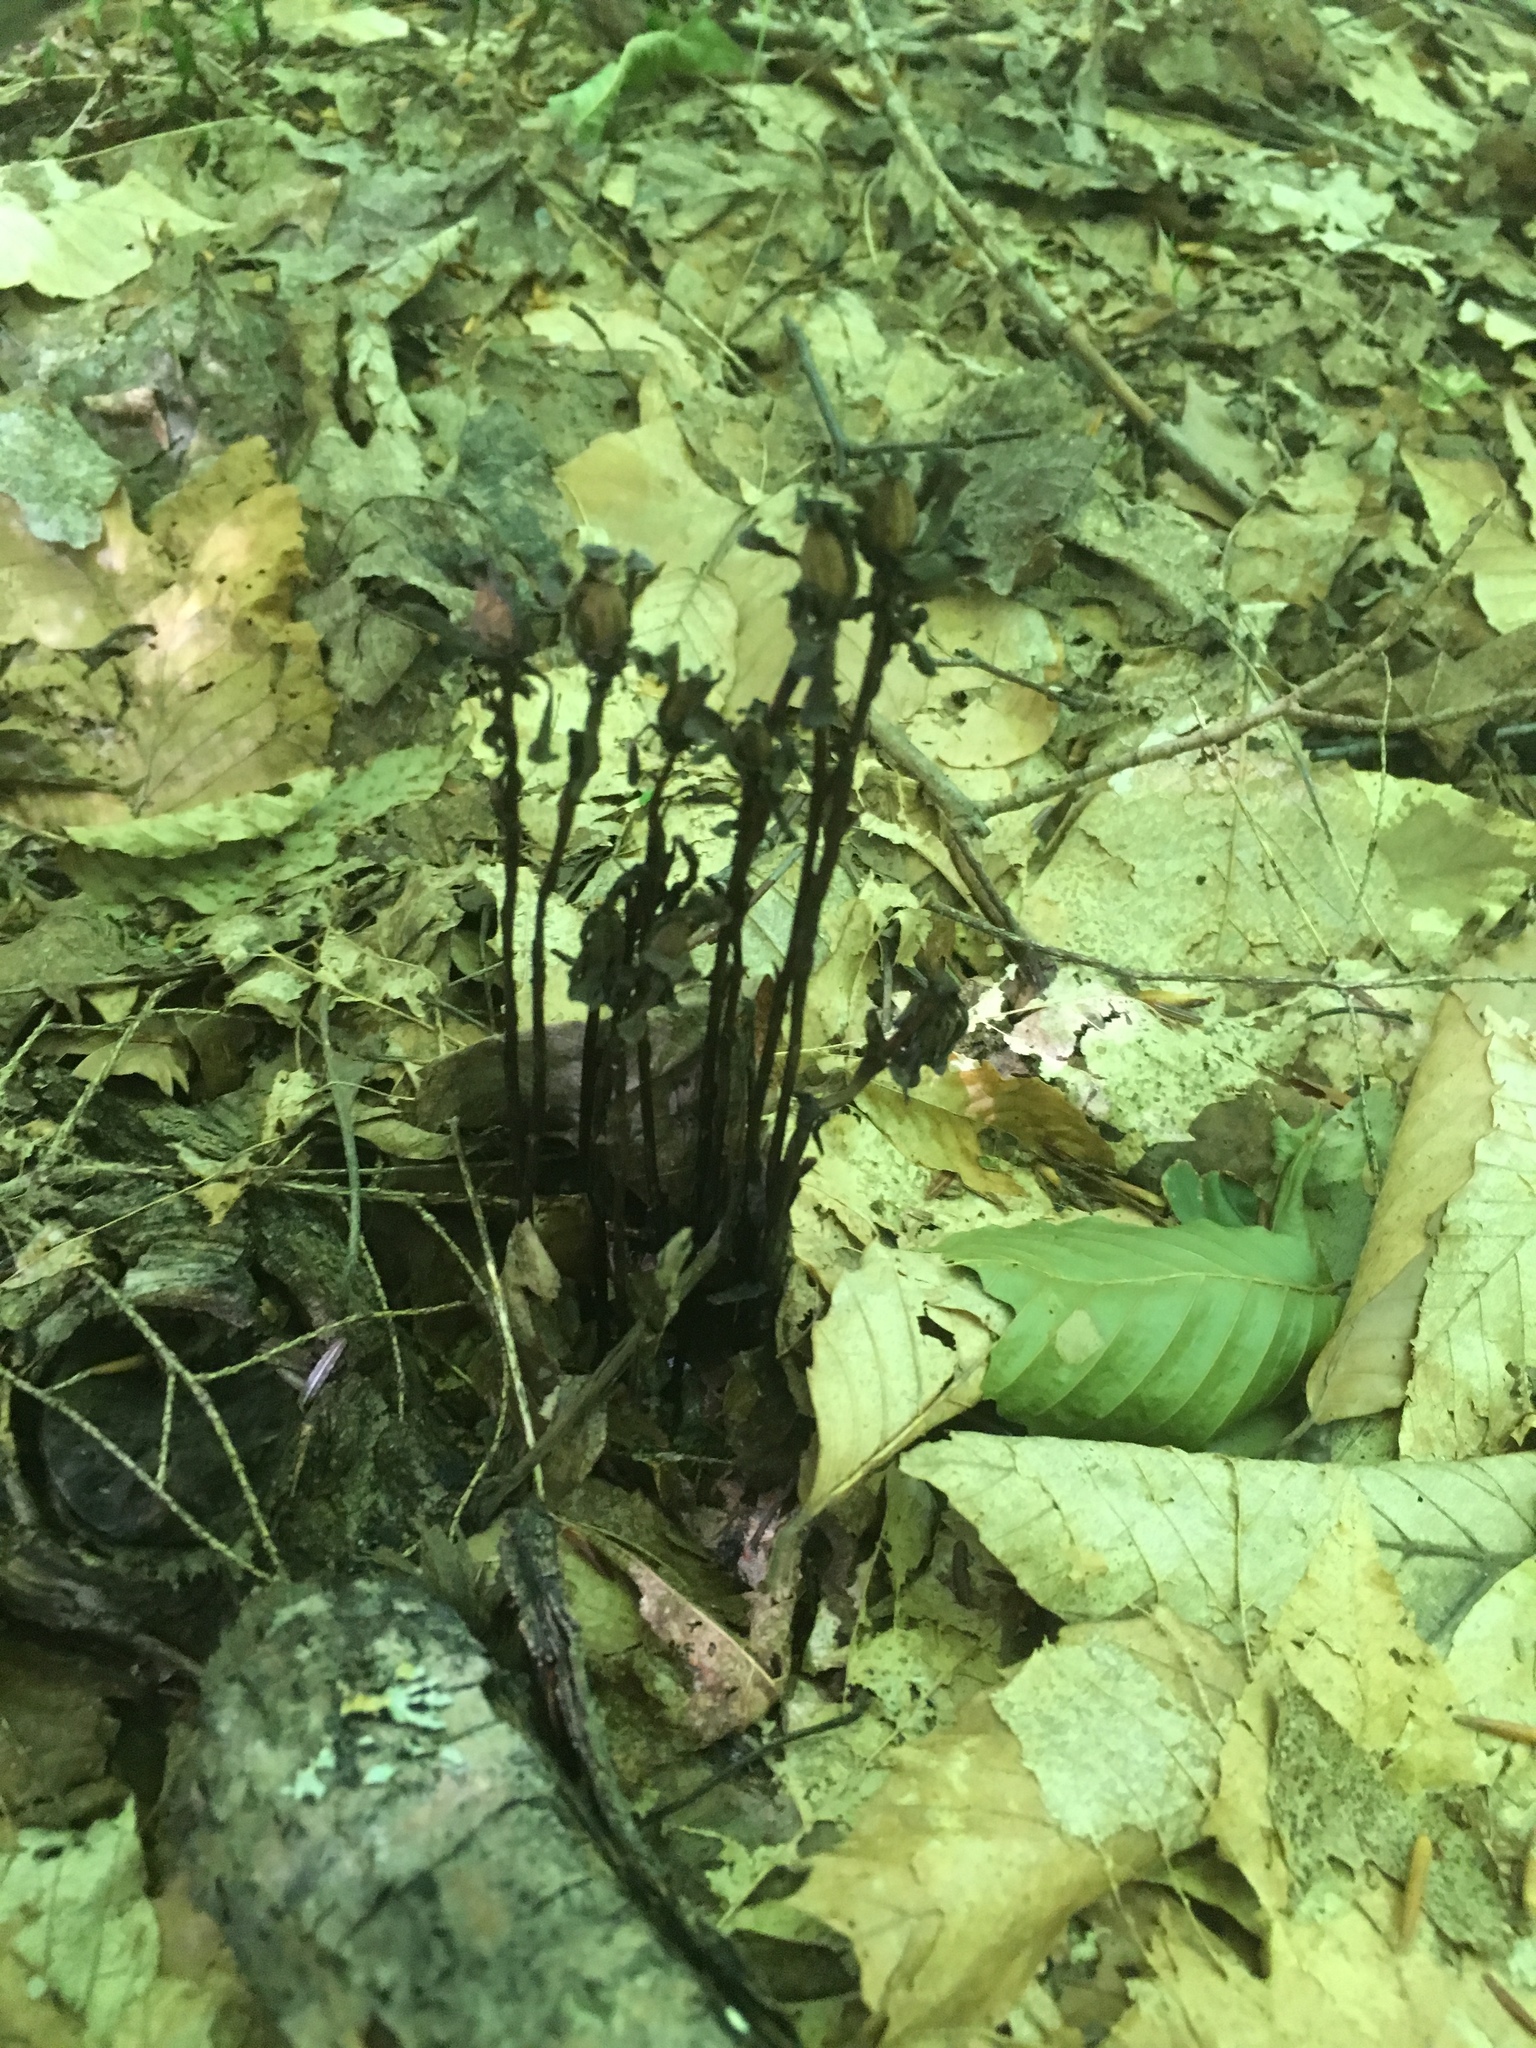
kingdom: Plantae
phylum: Tracheophyta
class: Magnoliopsida
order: Ericales
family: Ericaceae
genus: Monotropa
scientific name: Monotropa uniflora
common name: Convulsion root
